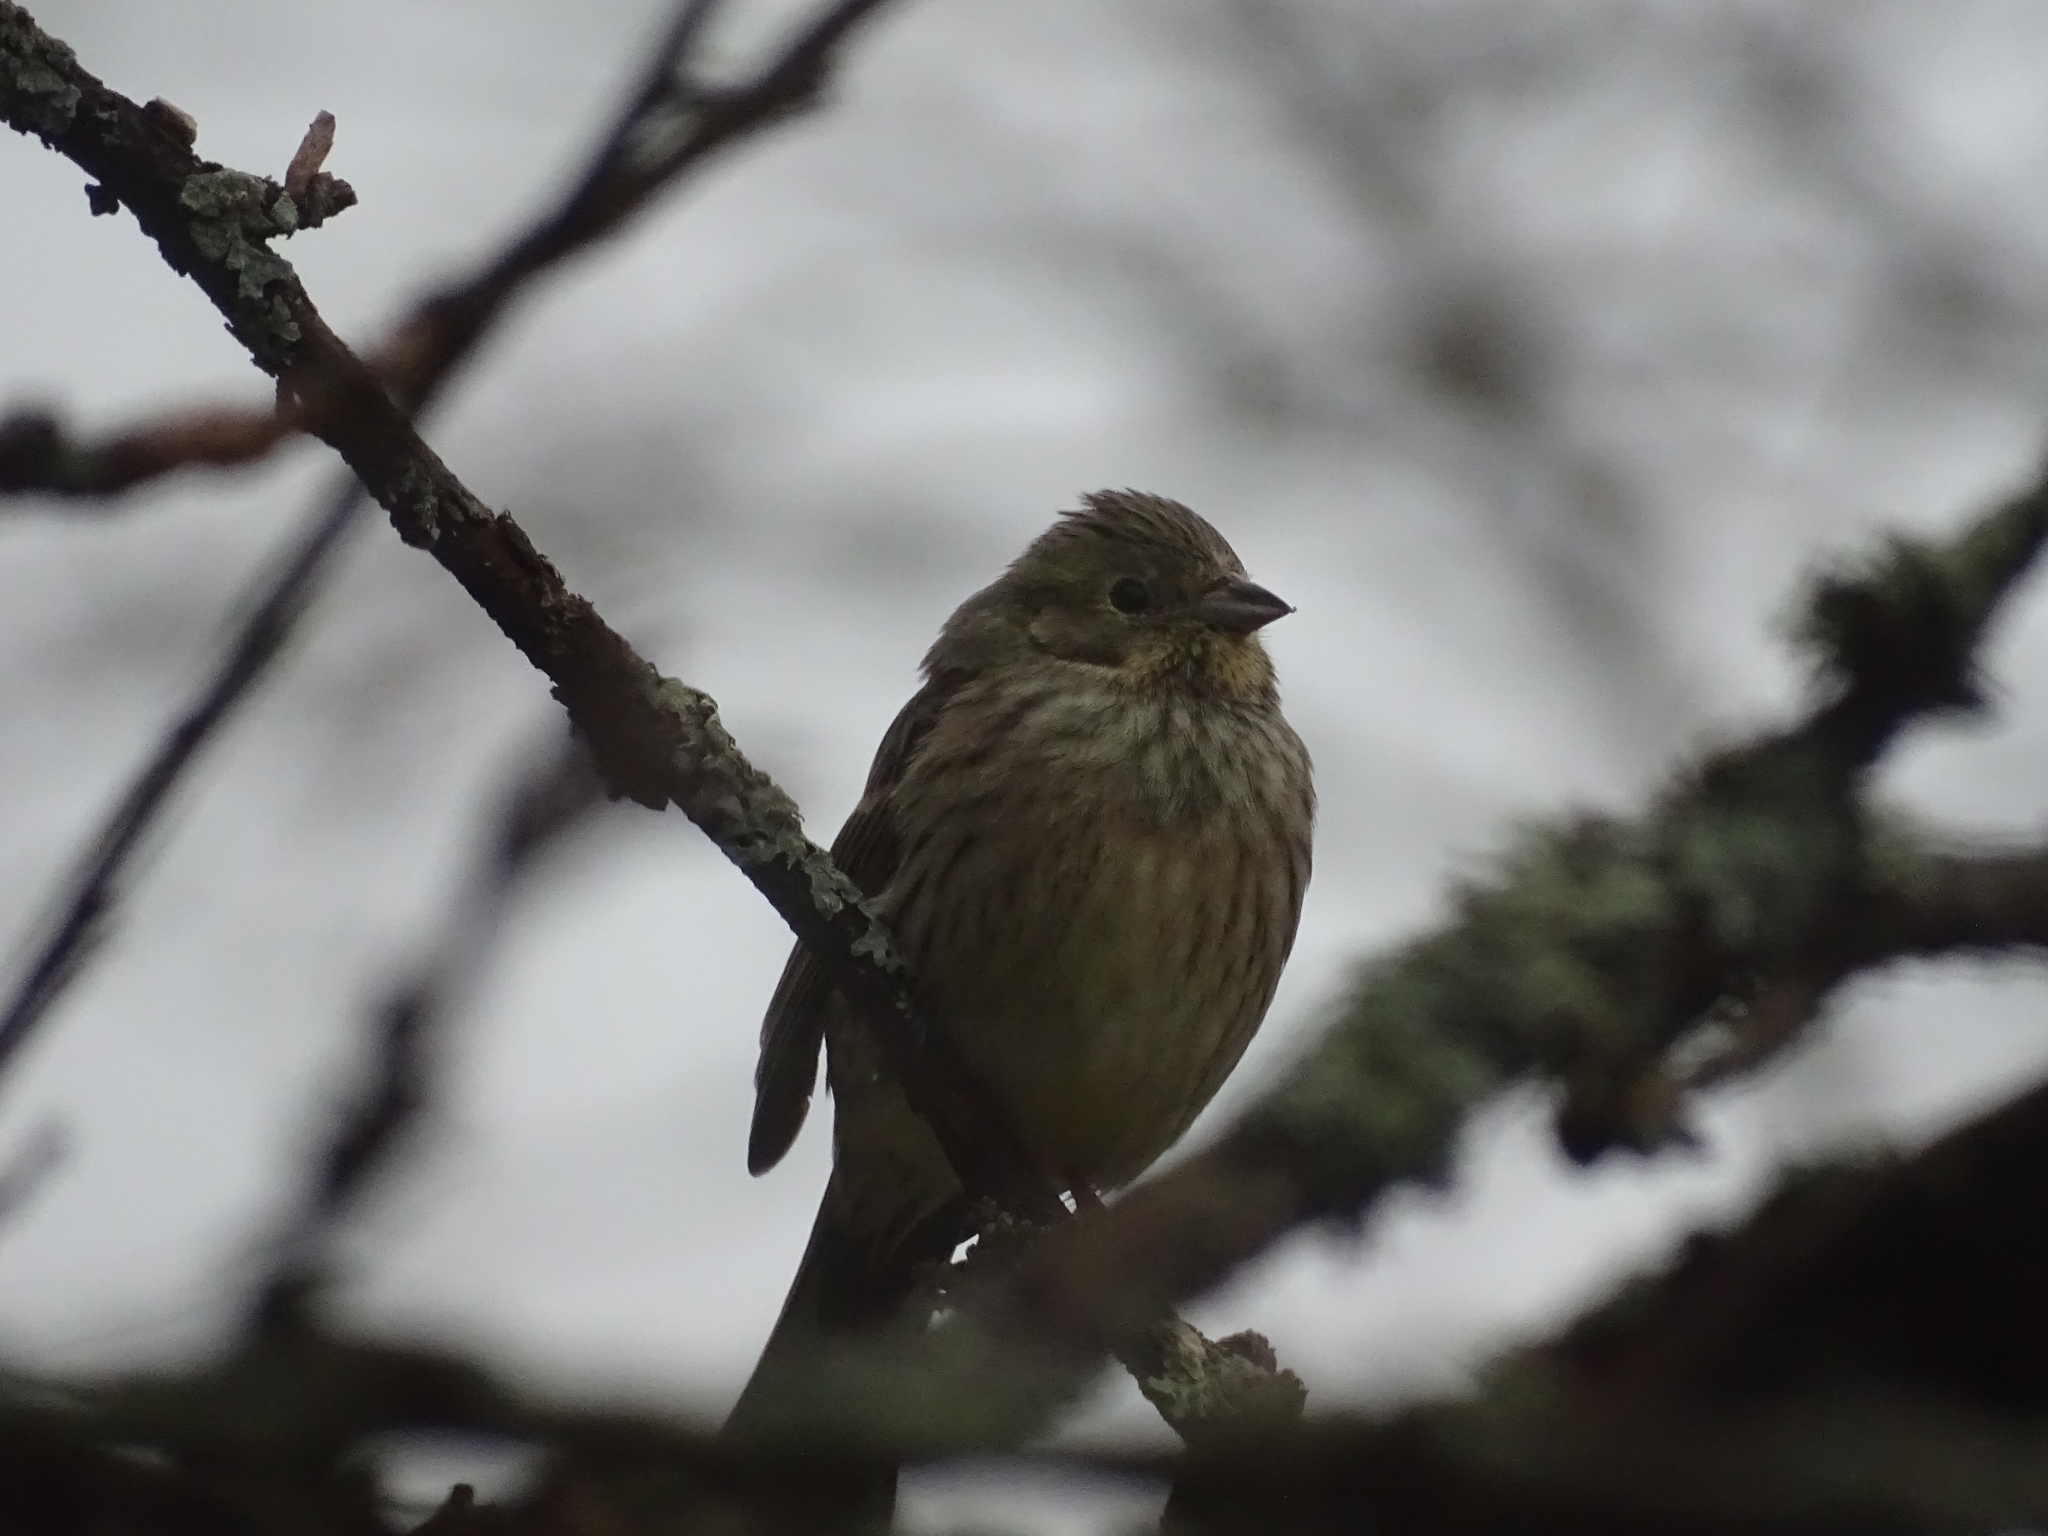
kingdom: Animalia
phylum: Chordata
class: Aves
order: Passeriformes
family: Emberizidae
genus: Emberiza
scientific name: Emberiza citrinella
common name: Yellowhammer
